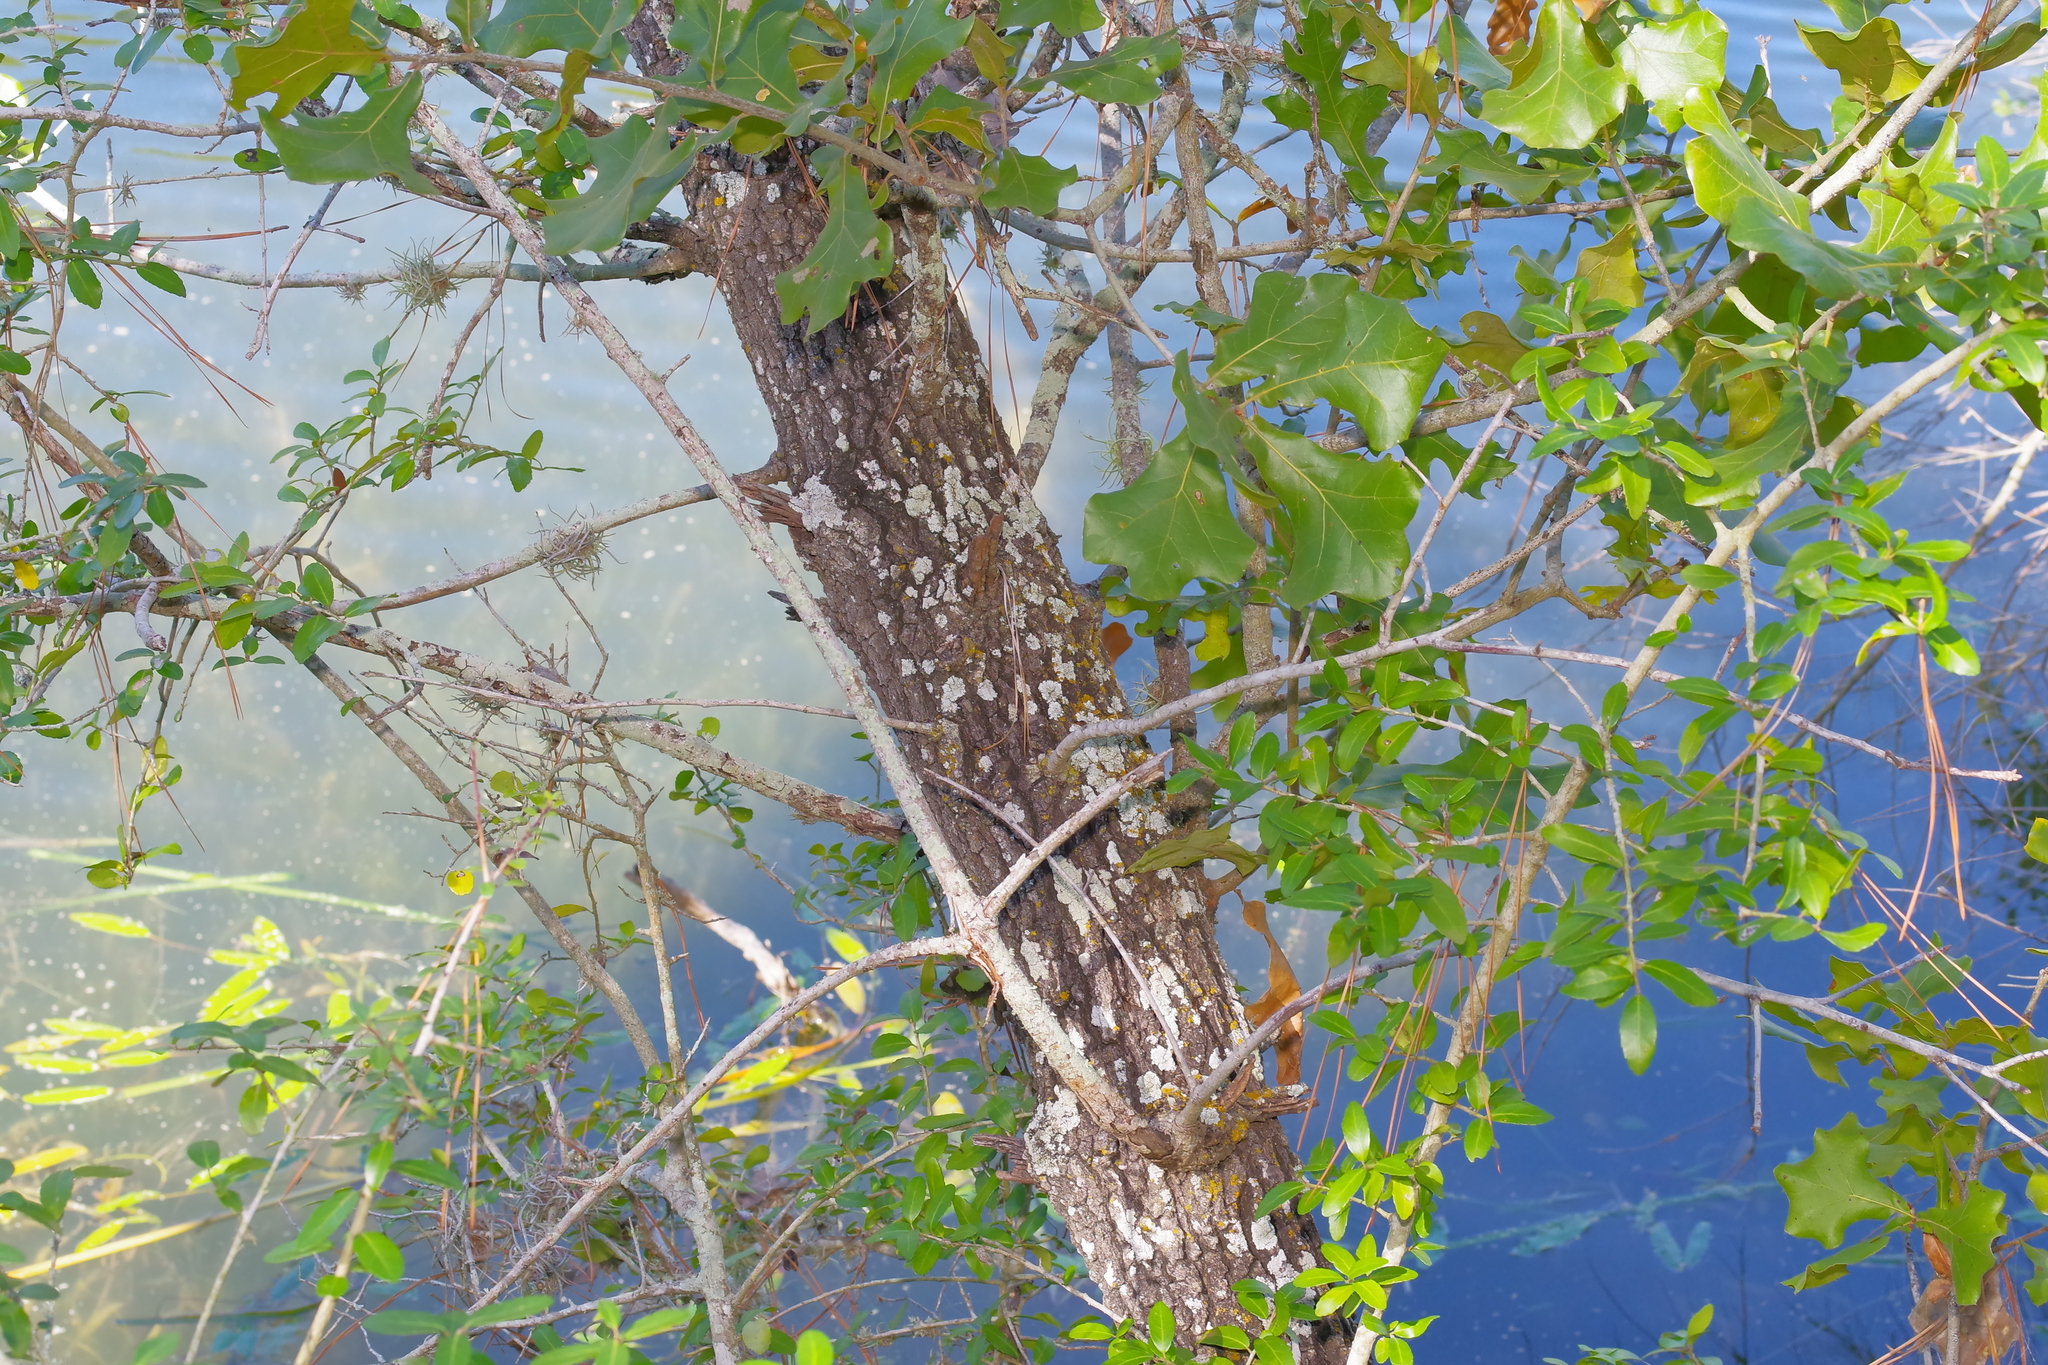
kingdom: Plantae
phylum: Tracheophyta
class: Magnoliopsida
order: Fagales
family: Fagaceae
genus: Quercus
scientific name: Quercus marilandica
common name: Blackjack oak
